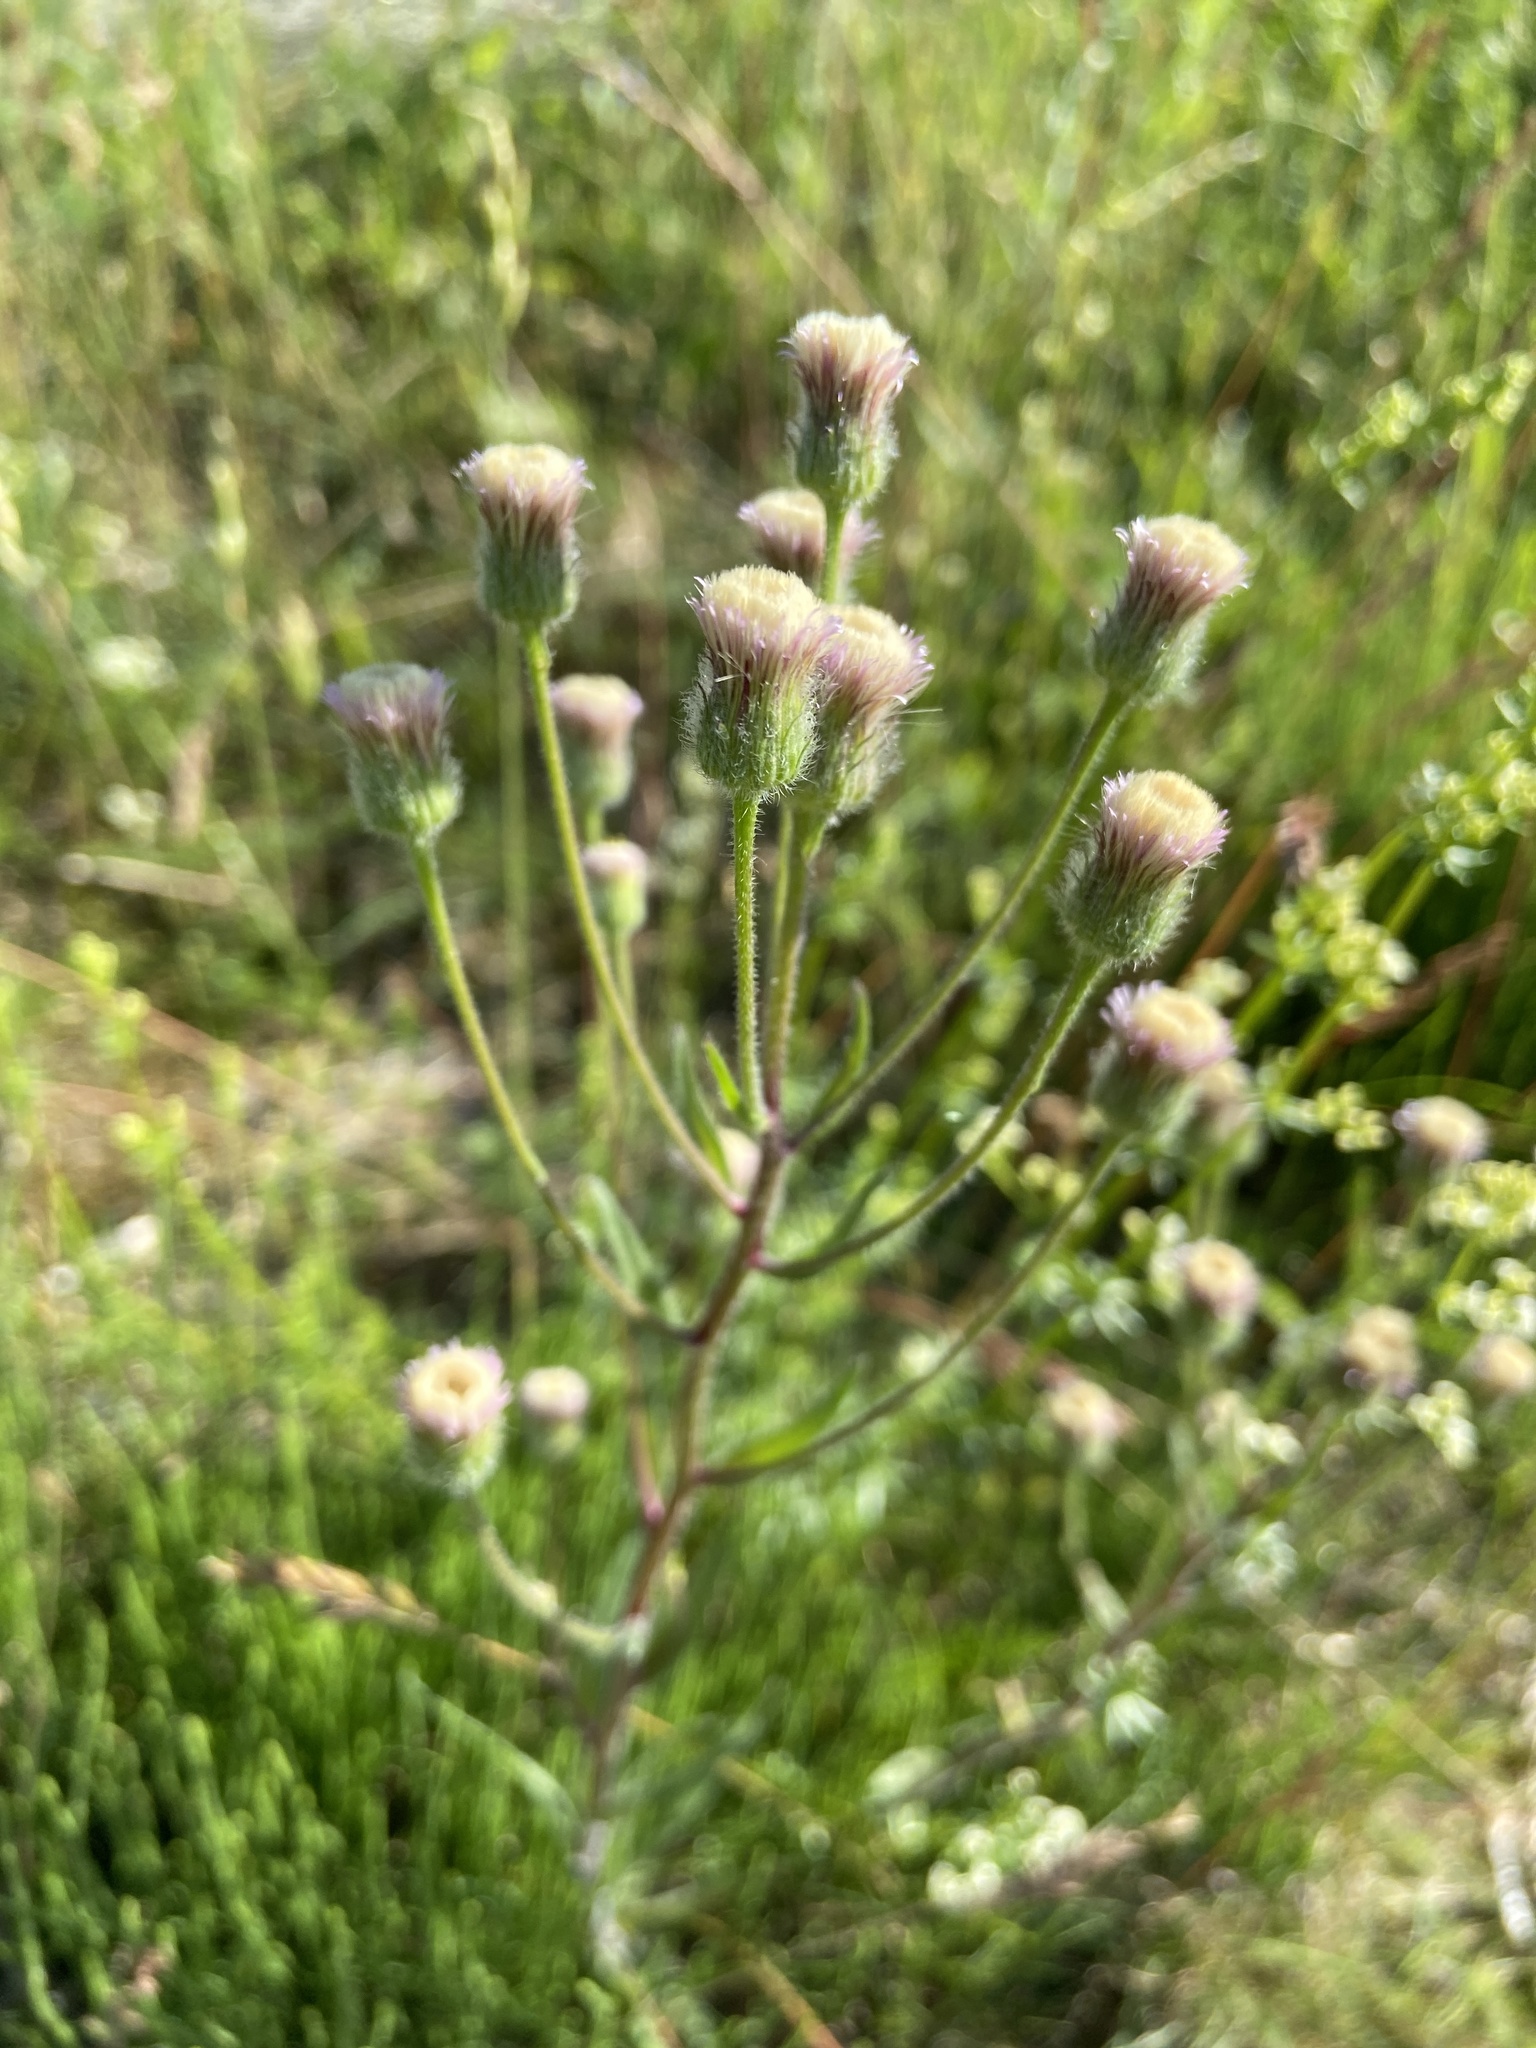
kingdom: Plantae
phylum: Tracheophyta
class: Magnoliopsida
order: Asterales
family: Asteraceae
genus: Erigeron
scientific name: Erigeron acris
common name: Blue fleabane
